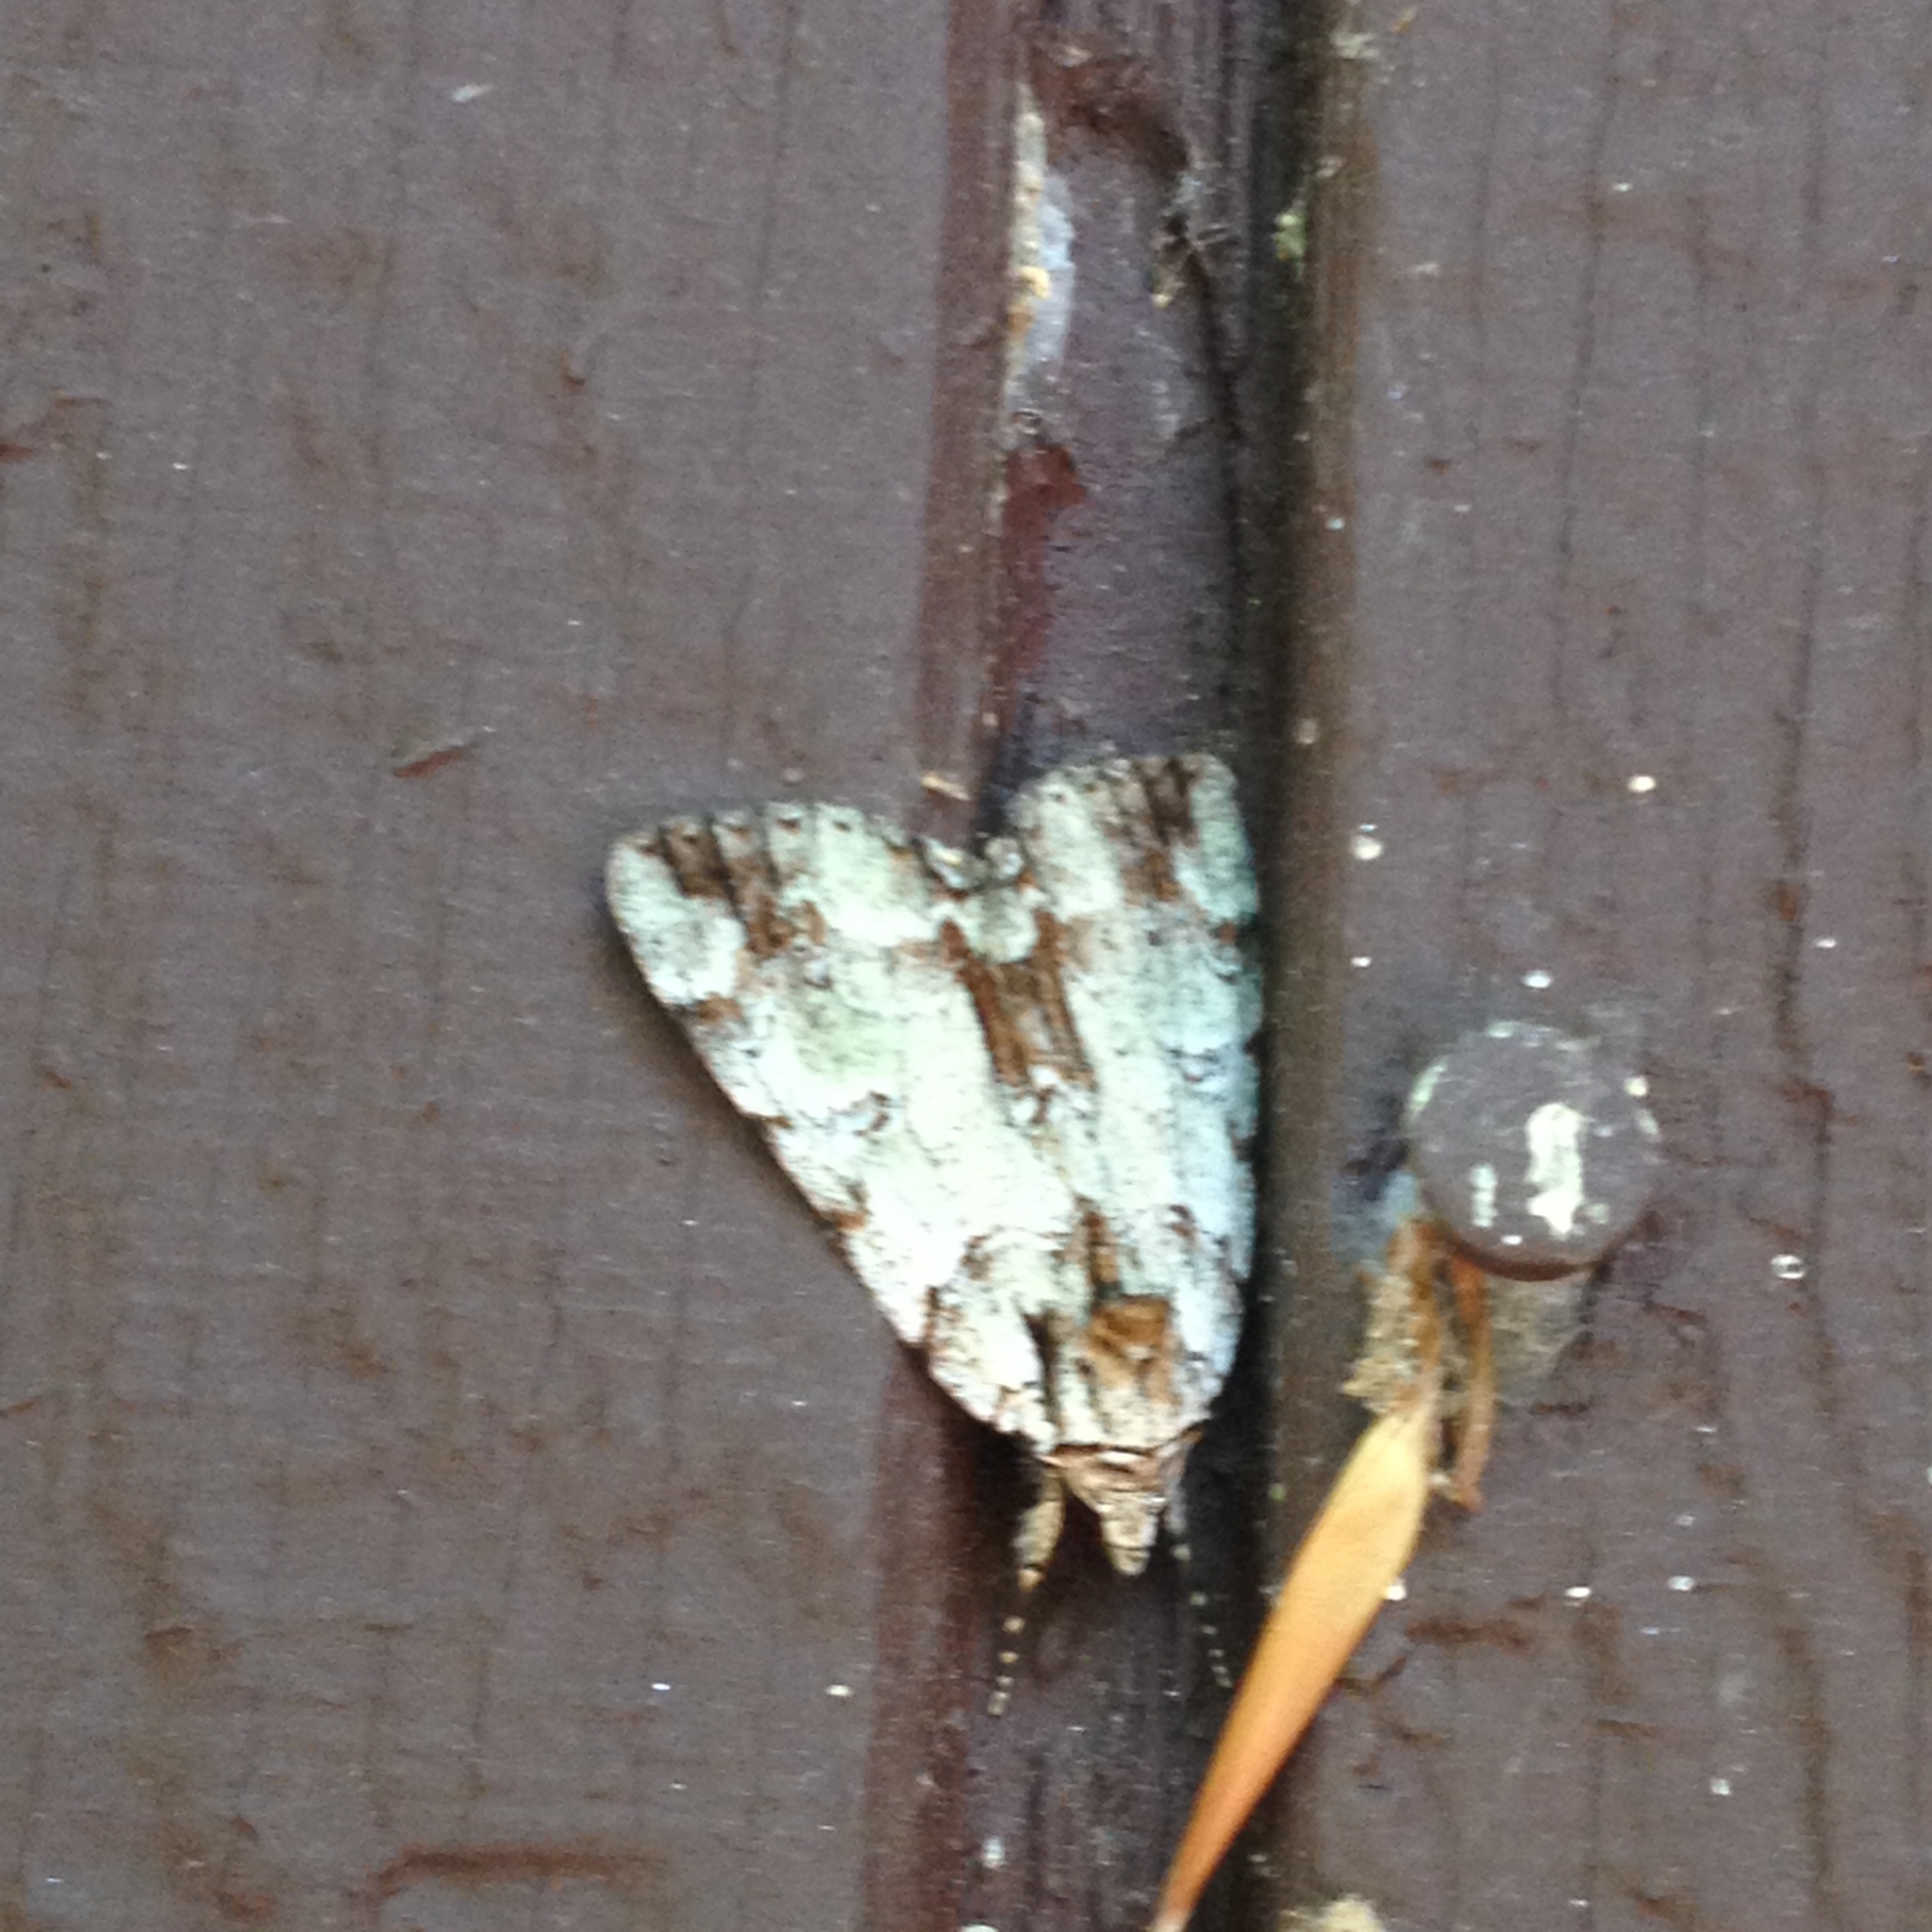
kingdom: Animalia
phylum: Arthropoda
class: Insecta
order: Lepidoptera
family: Erebidae
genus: Catocala
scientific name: Catocala praeclara
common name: Praeclara underwing
